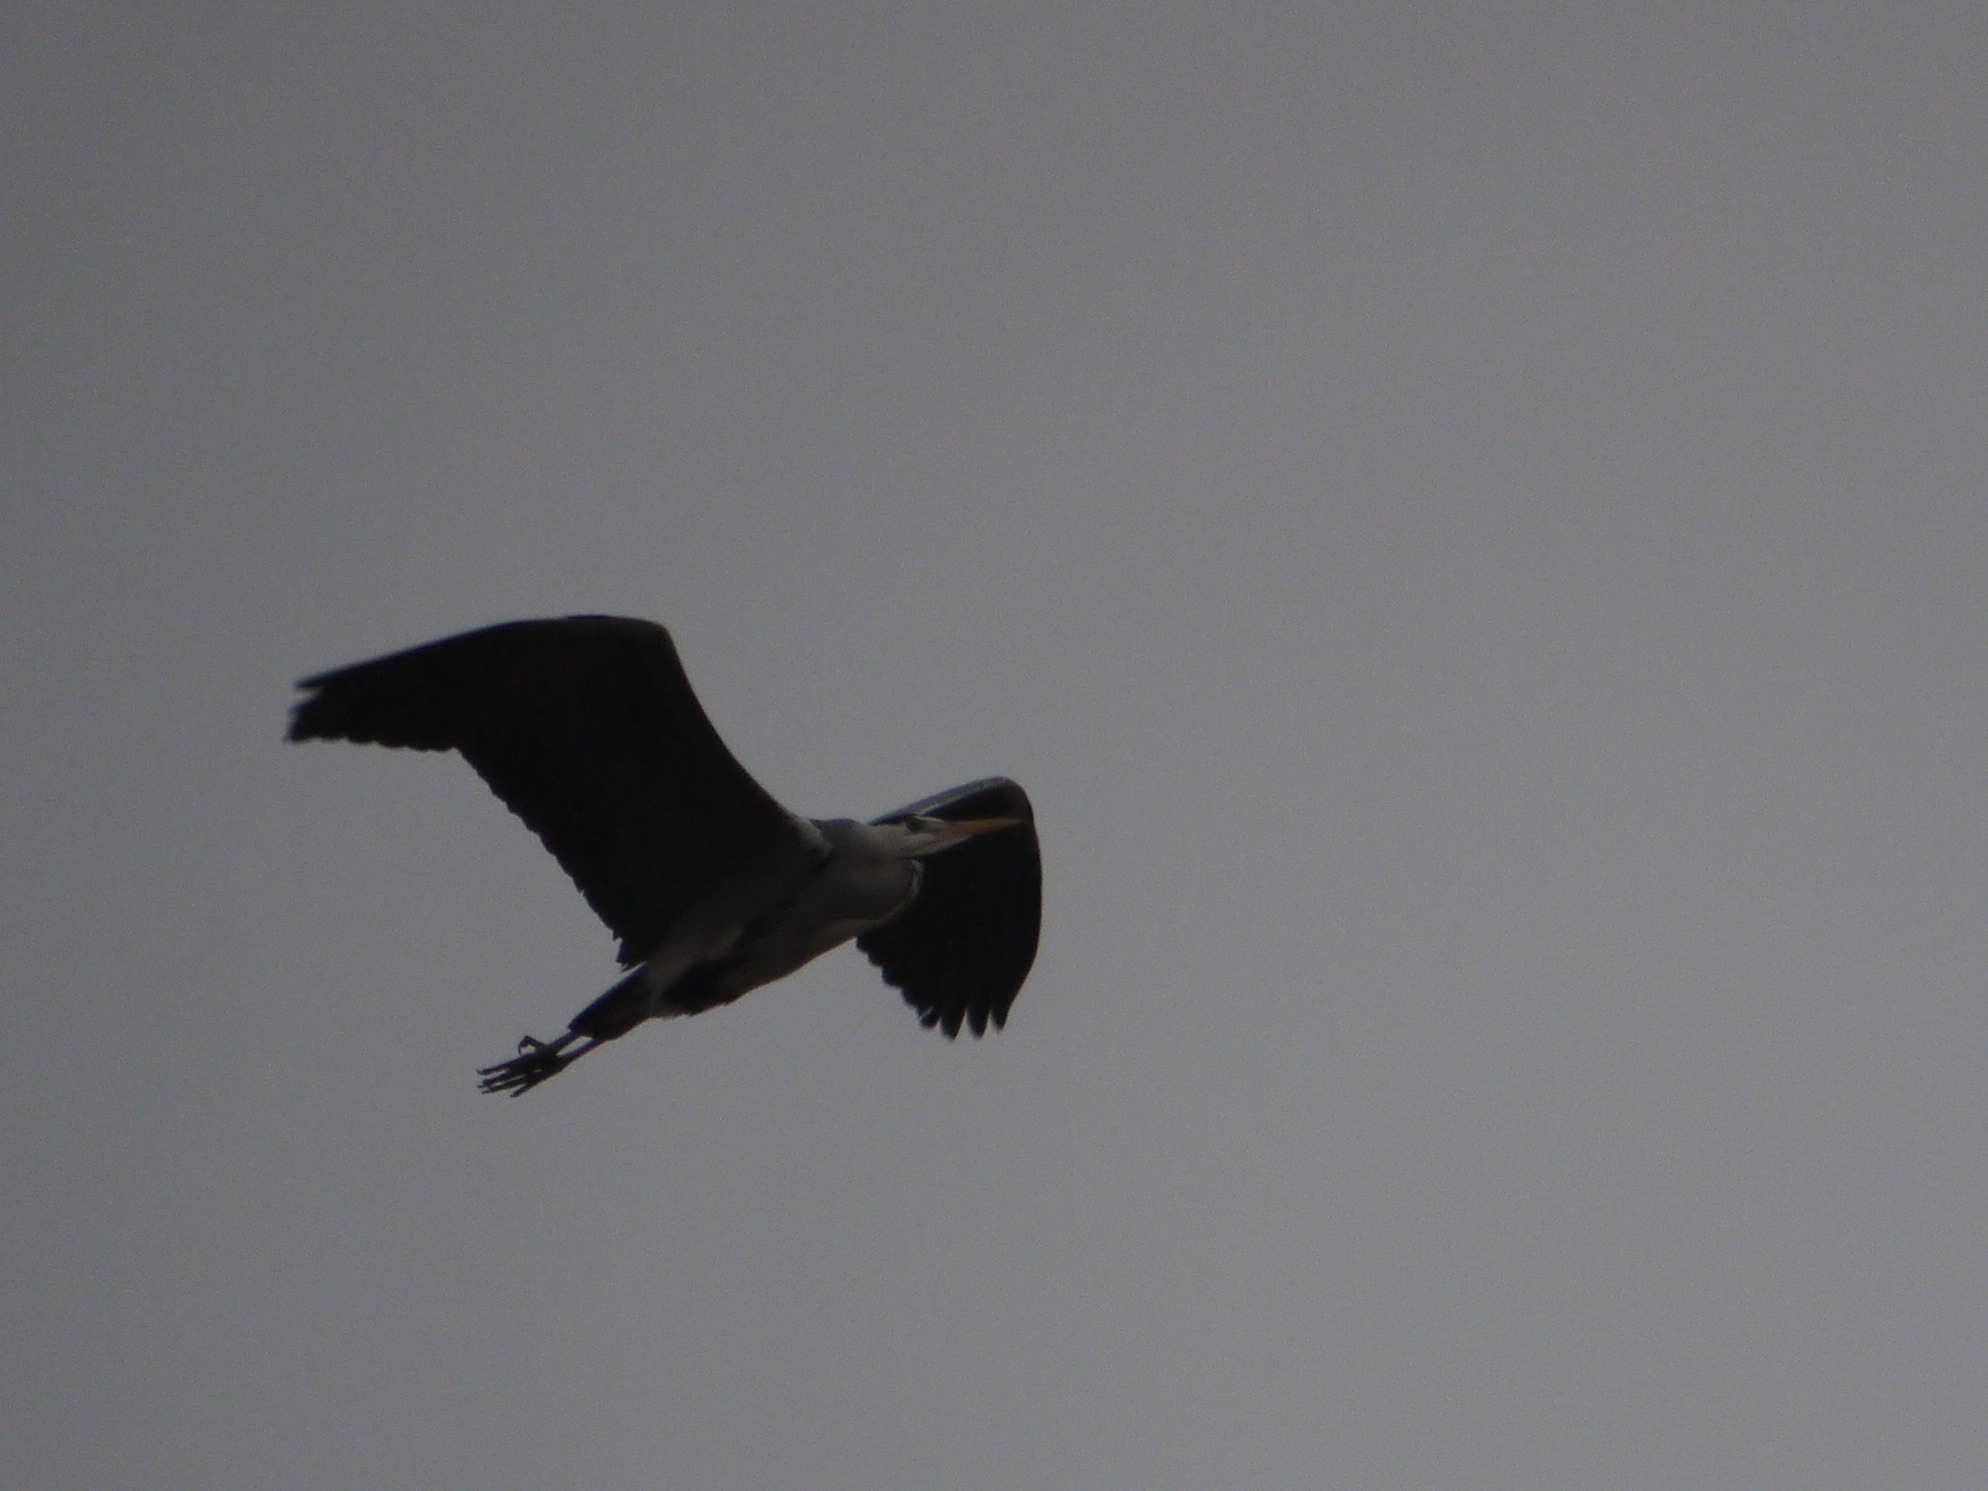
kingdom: Animalia
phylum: Chordata
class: Aves
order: Pelecaniformes
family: Ardeidae
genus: Ardea
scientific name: Ardea cinerea
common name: Grey heron
